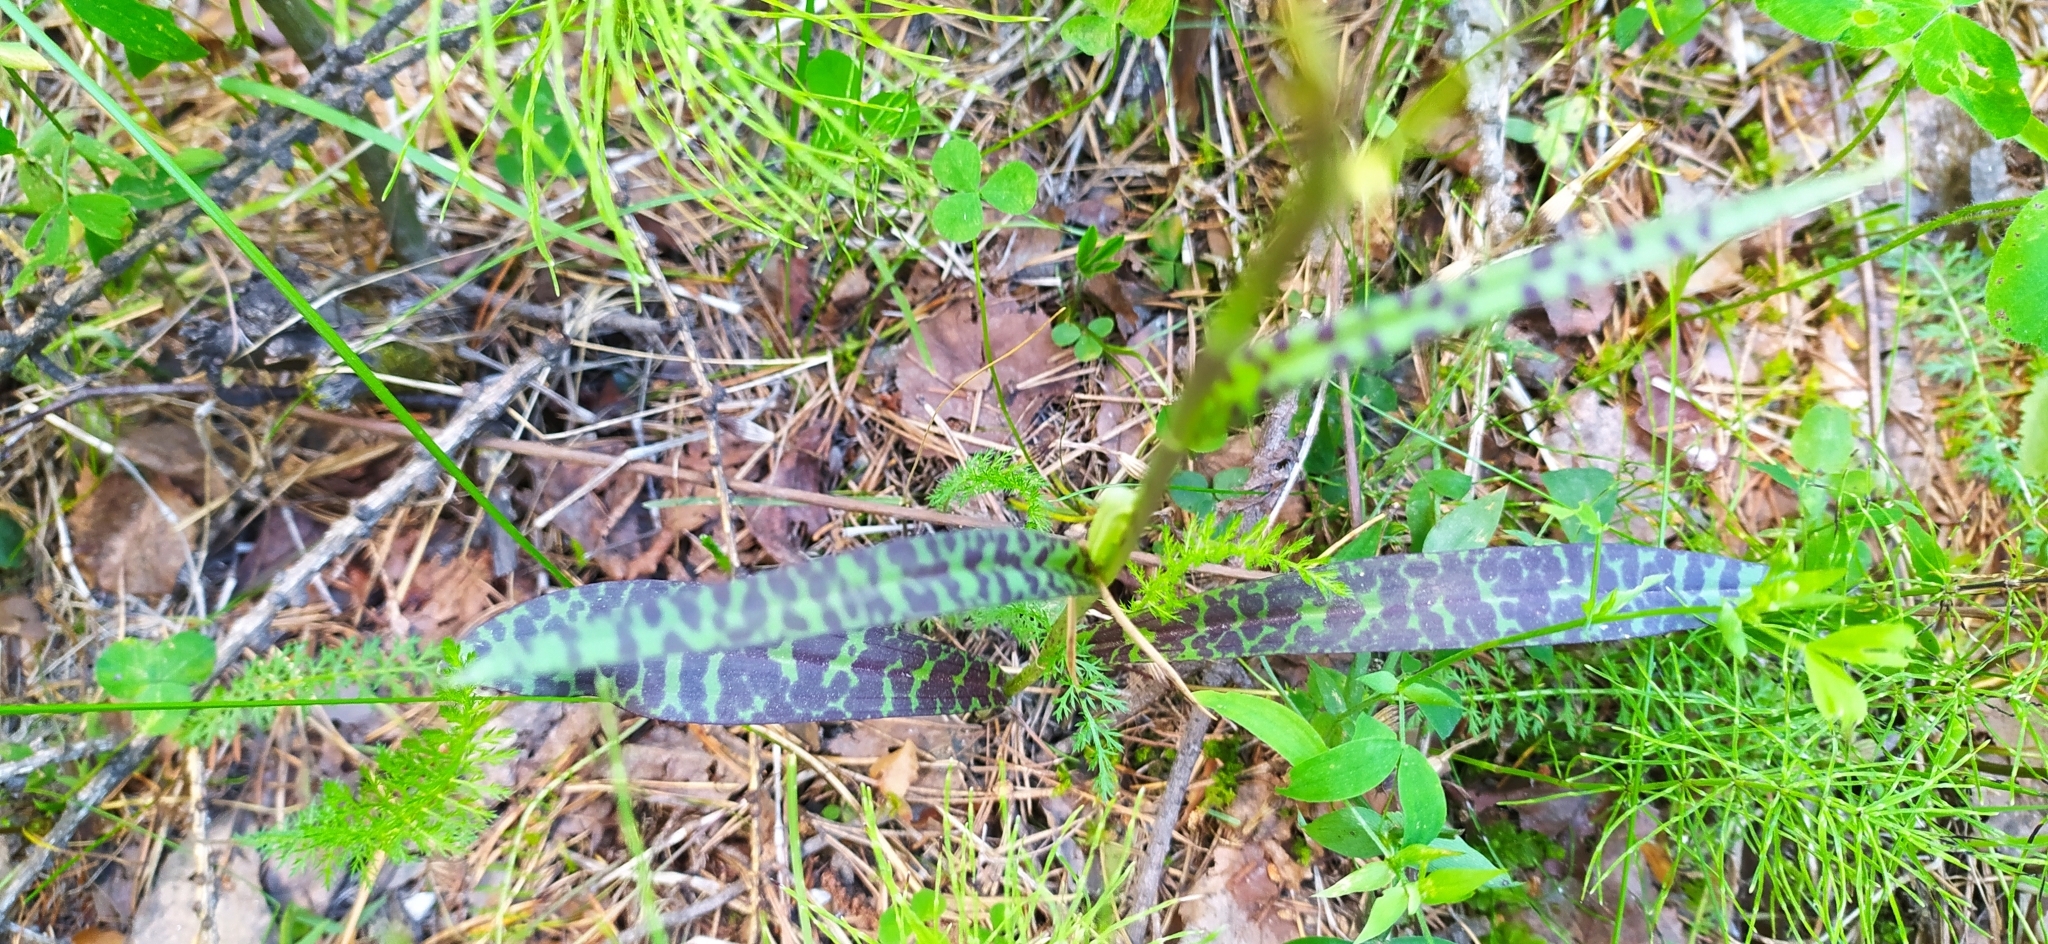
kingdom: Plantae
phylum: Tracheophyta
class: Liliopsida
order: Asparagales
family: Orchidaceae
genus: Dactylorhiza
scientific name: Dactylorhiza maculata
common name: Heath spotted-orchid
